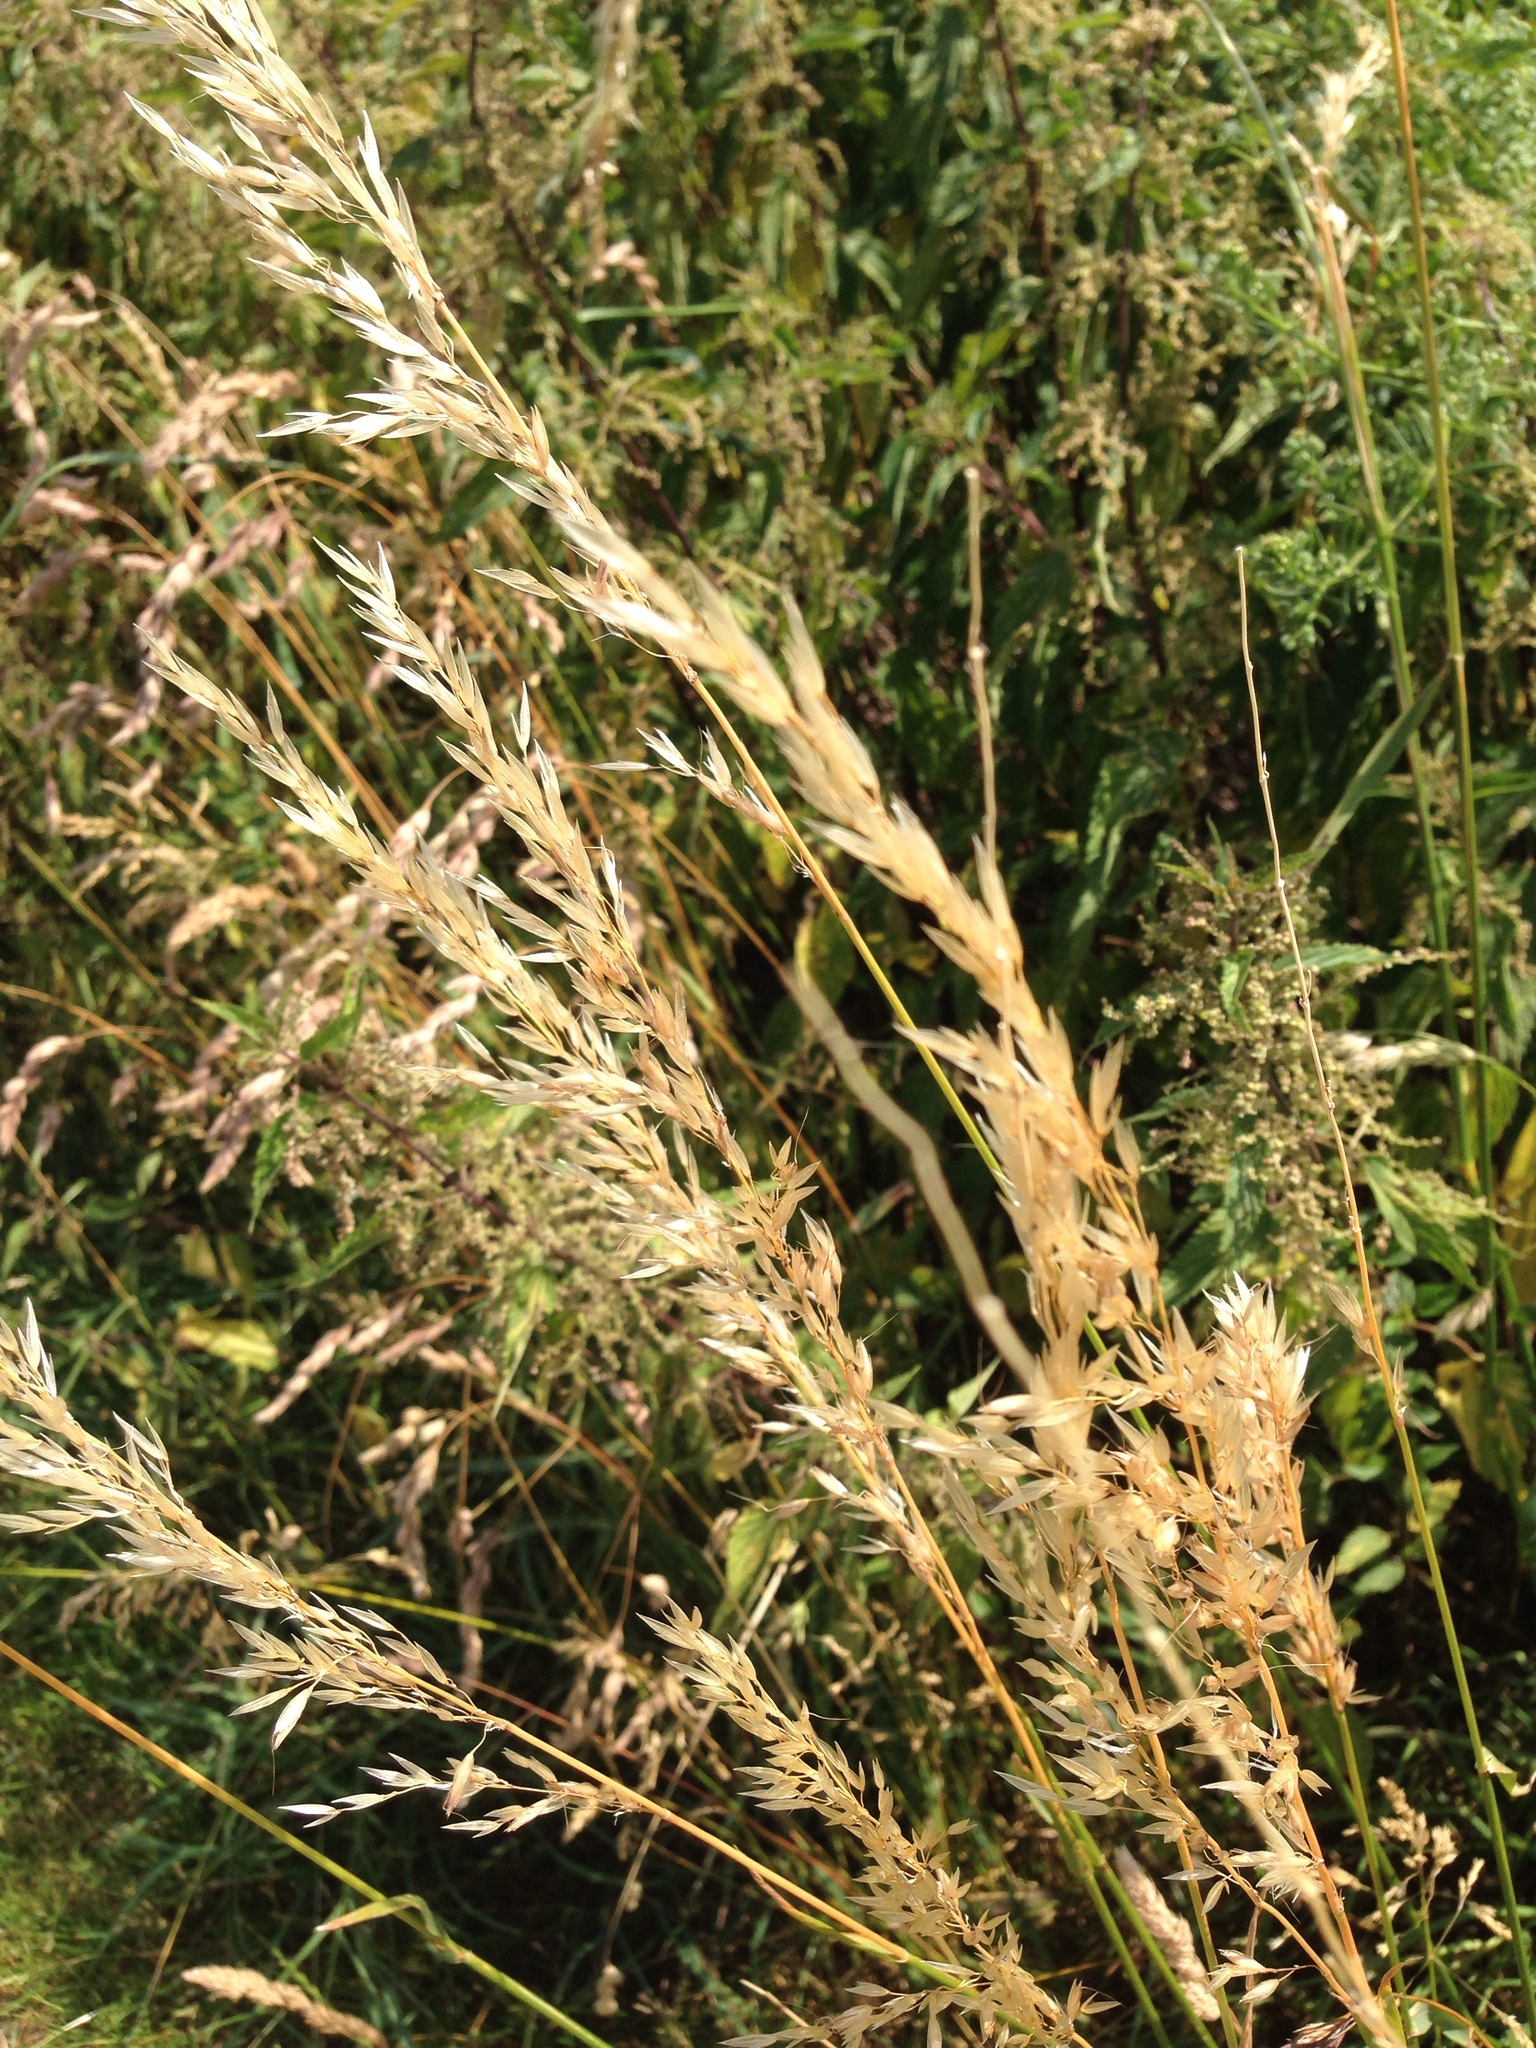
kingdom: Plantae
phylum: Tracheophyta
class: Liliopsida
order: Poales
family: Poaceae
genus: Arrhenatherum
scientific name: Arrhenatherum elatius
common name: Tall oatgrass
